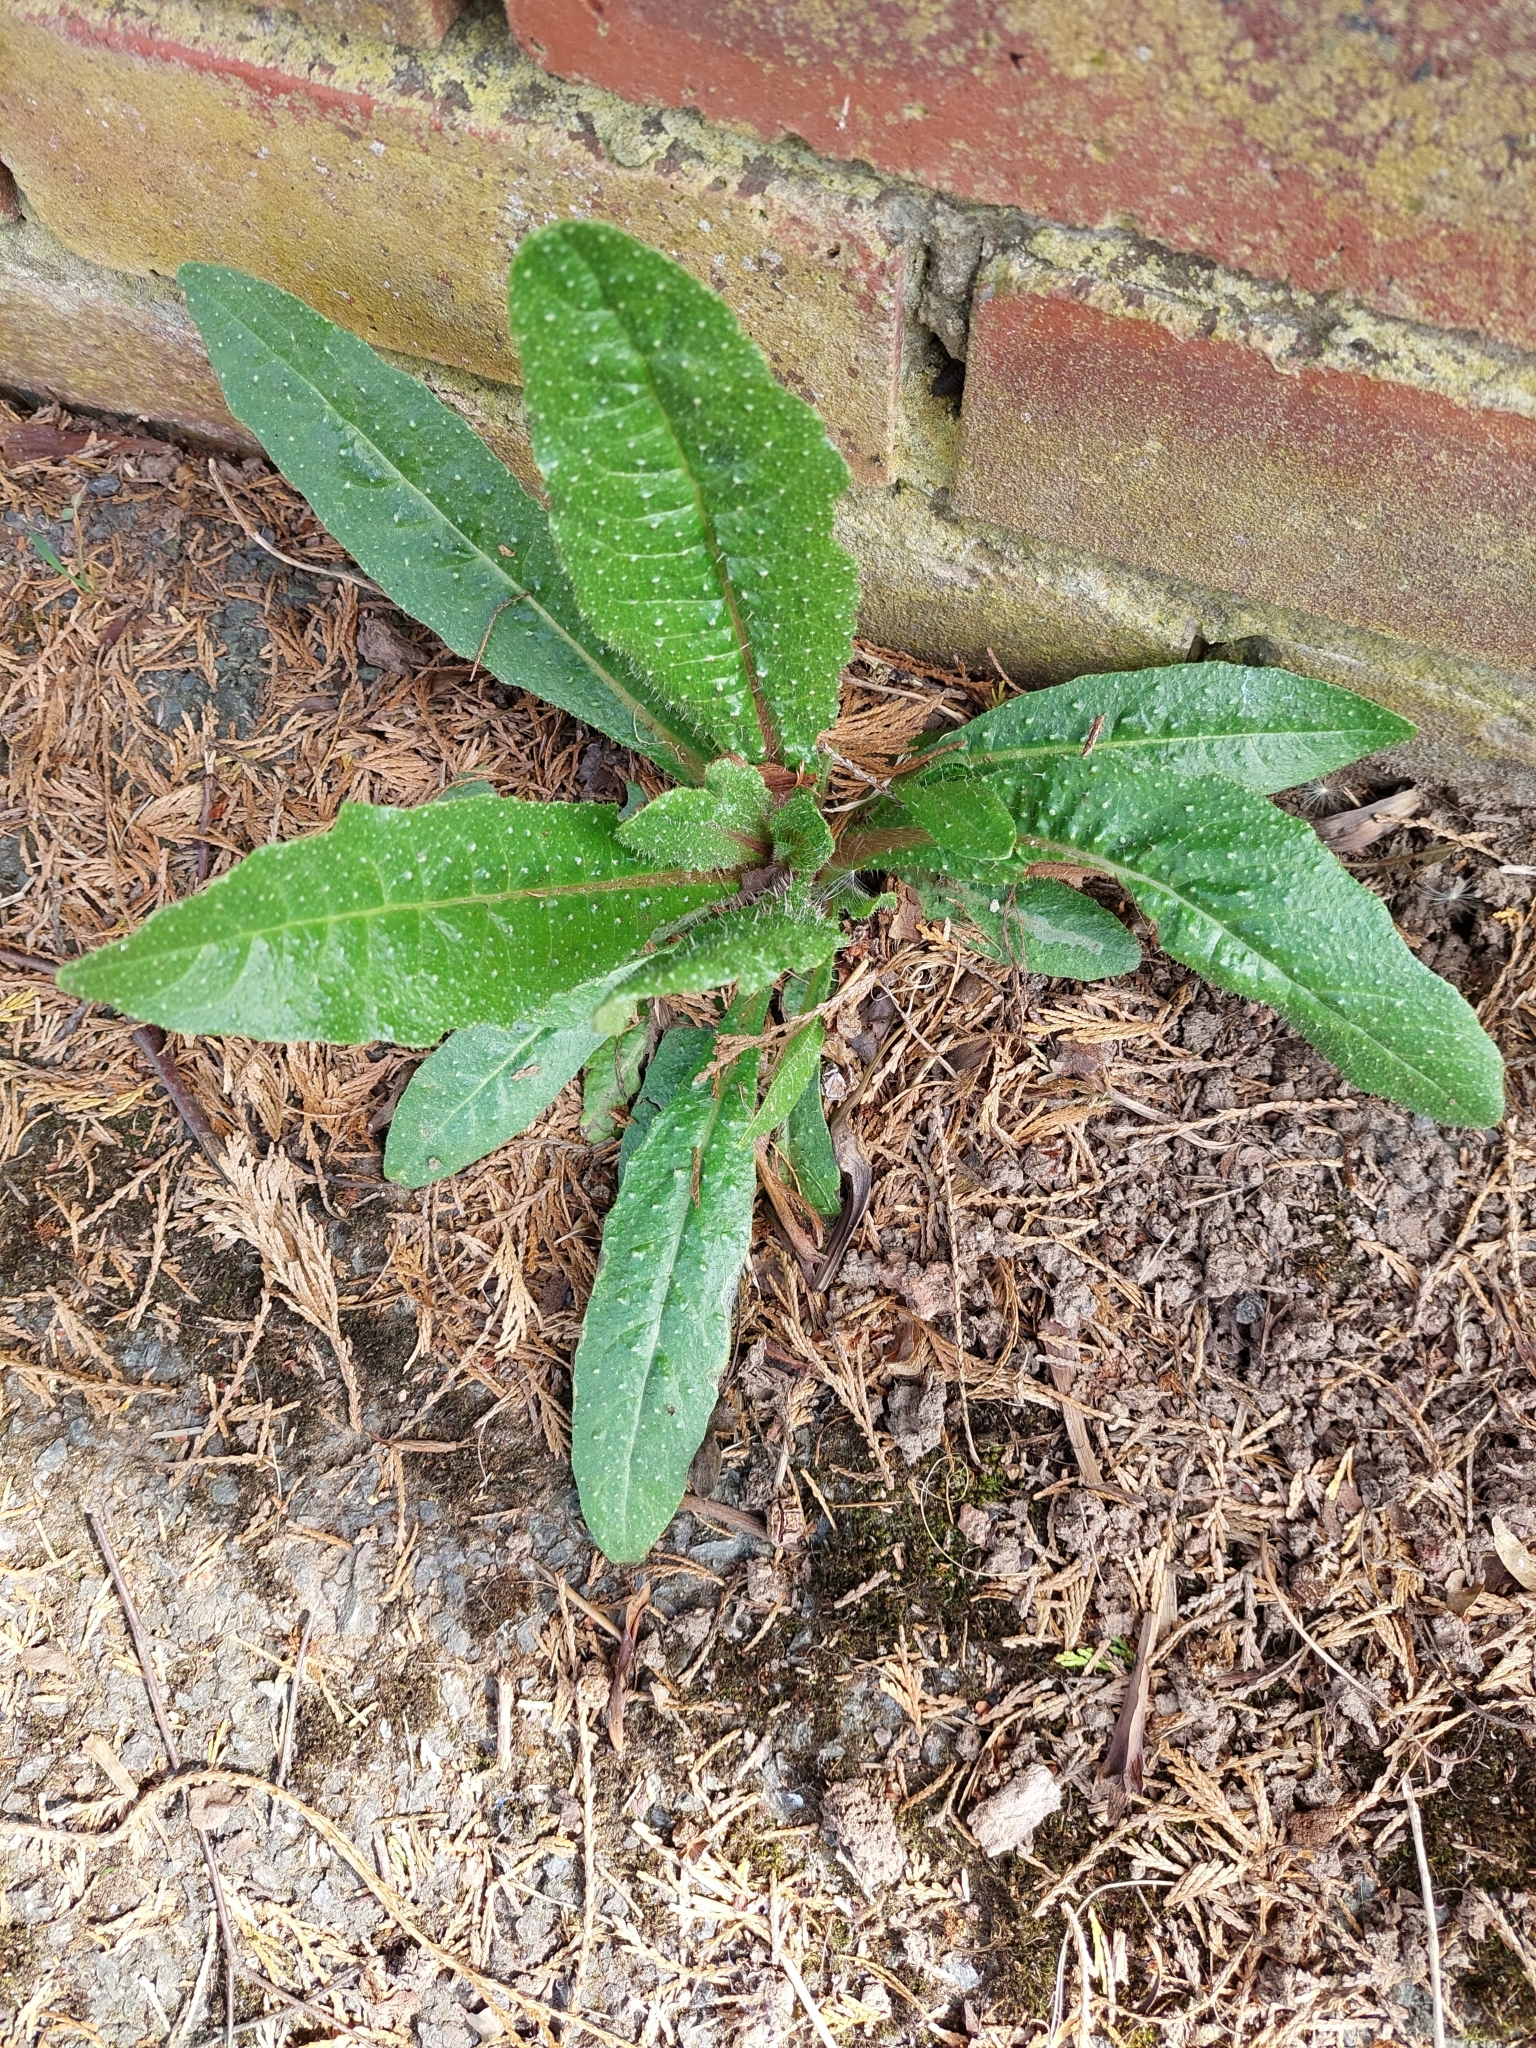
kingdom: Plantae
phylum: Tracheophyta
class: Magnoliopsida
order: Asterales
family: Asteraceae
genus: Helminthotheca
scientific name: Helminthotheca echioides
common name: Ox-tongue
